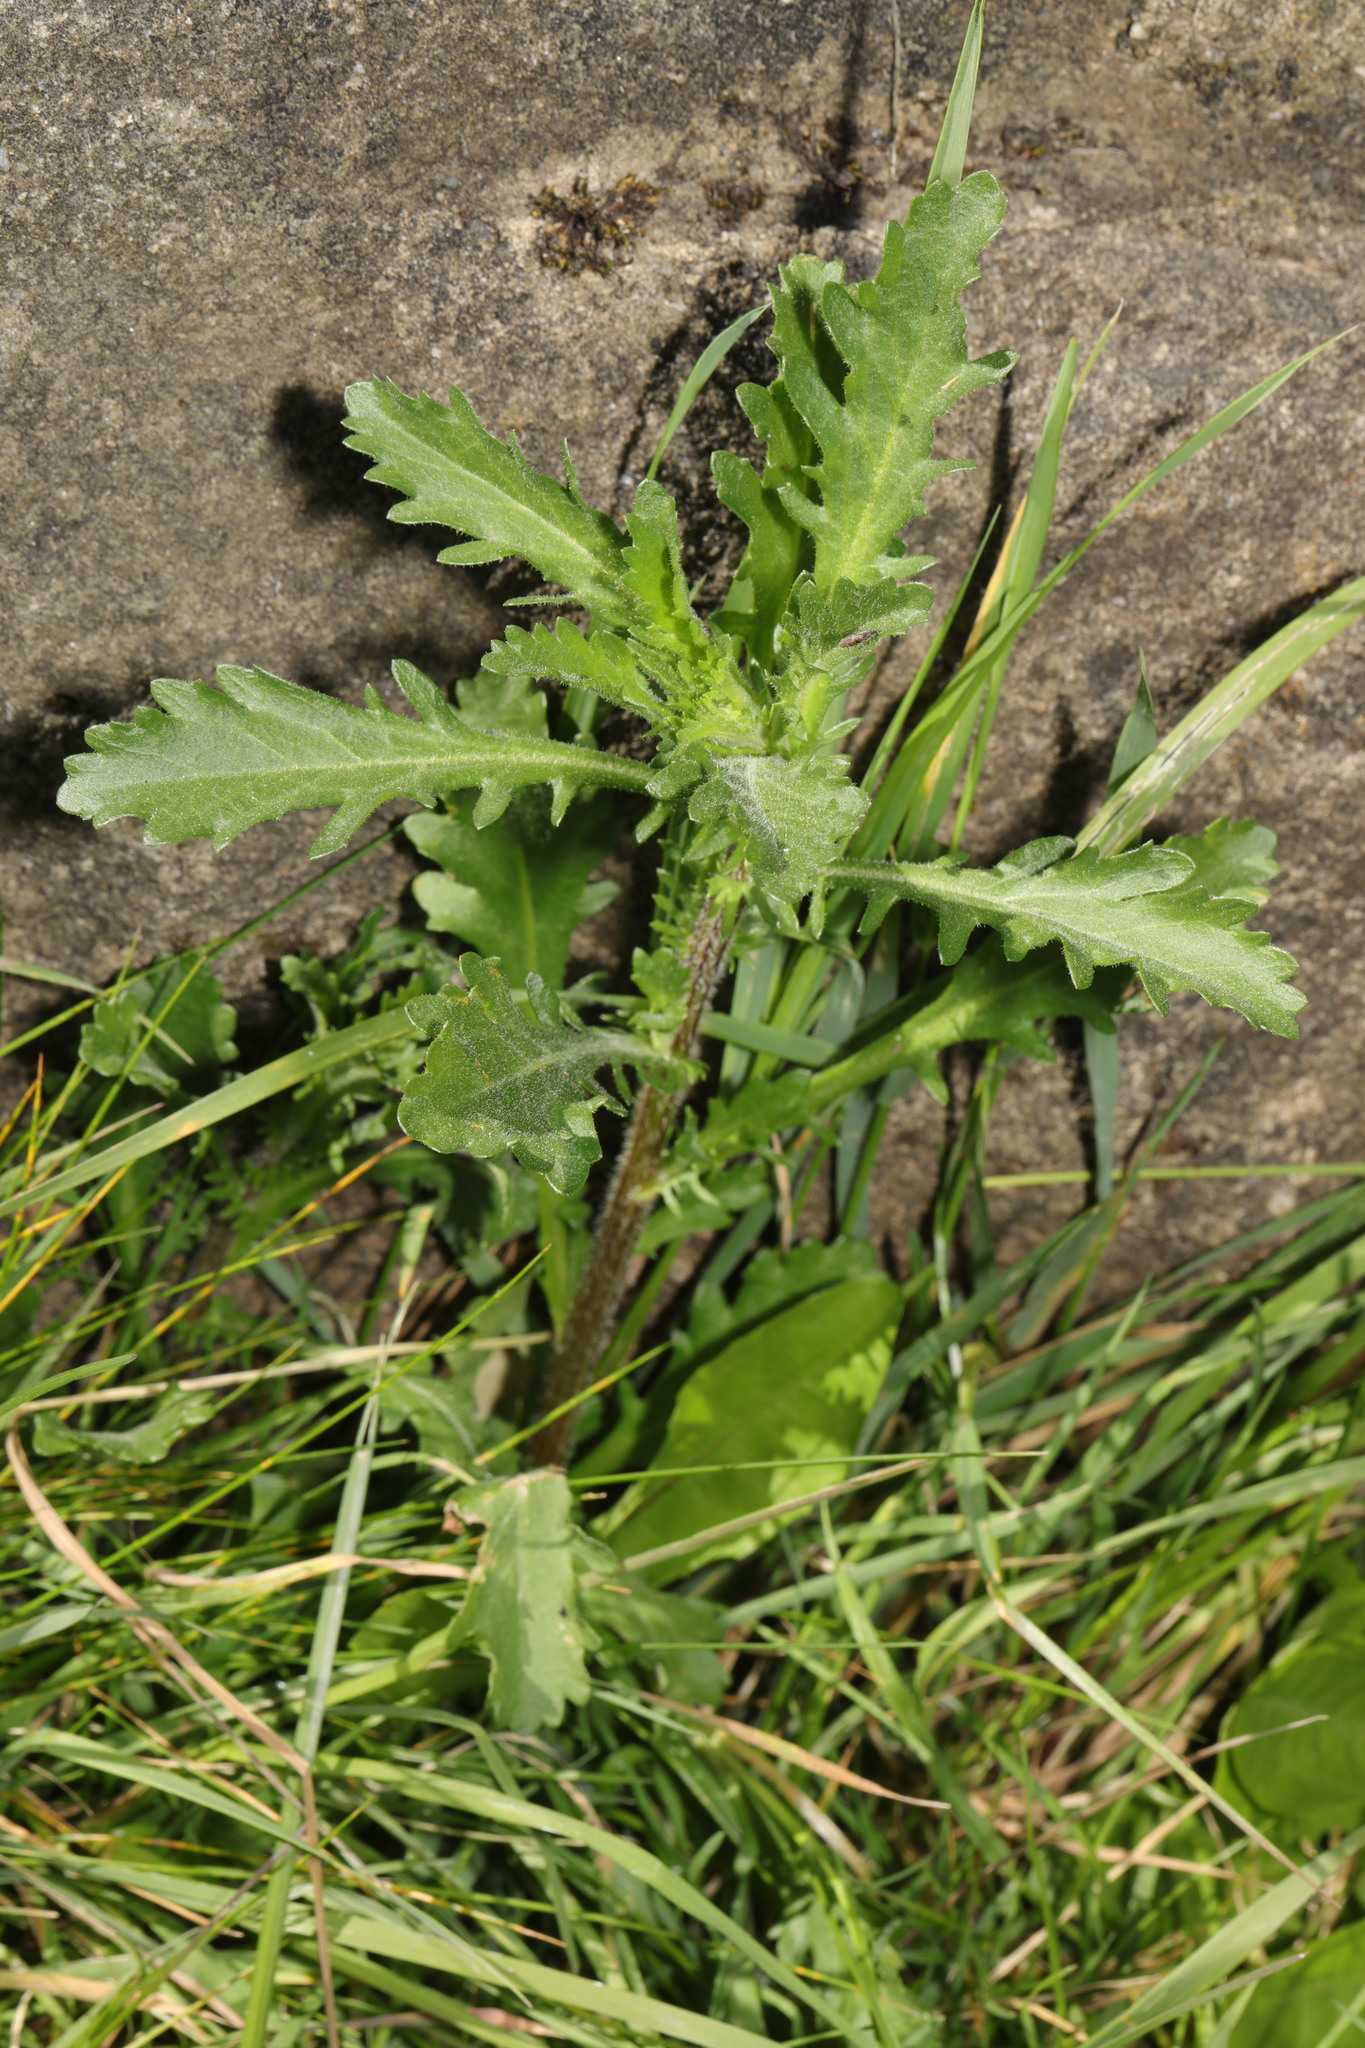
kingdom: Plantae
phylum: Tracheophyta
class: Magnoliopsida
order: Asterales
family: Asteraceae
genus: Senecio
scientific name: Senecio vulgaris
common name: Old-man-in-the-spring
